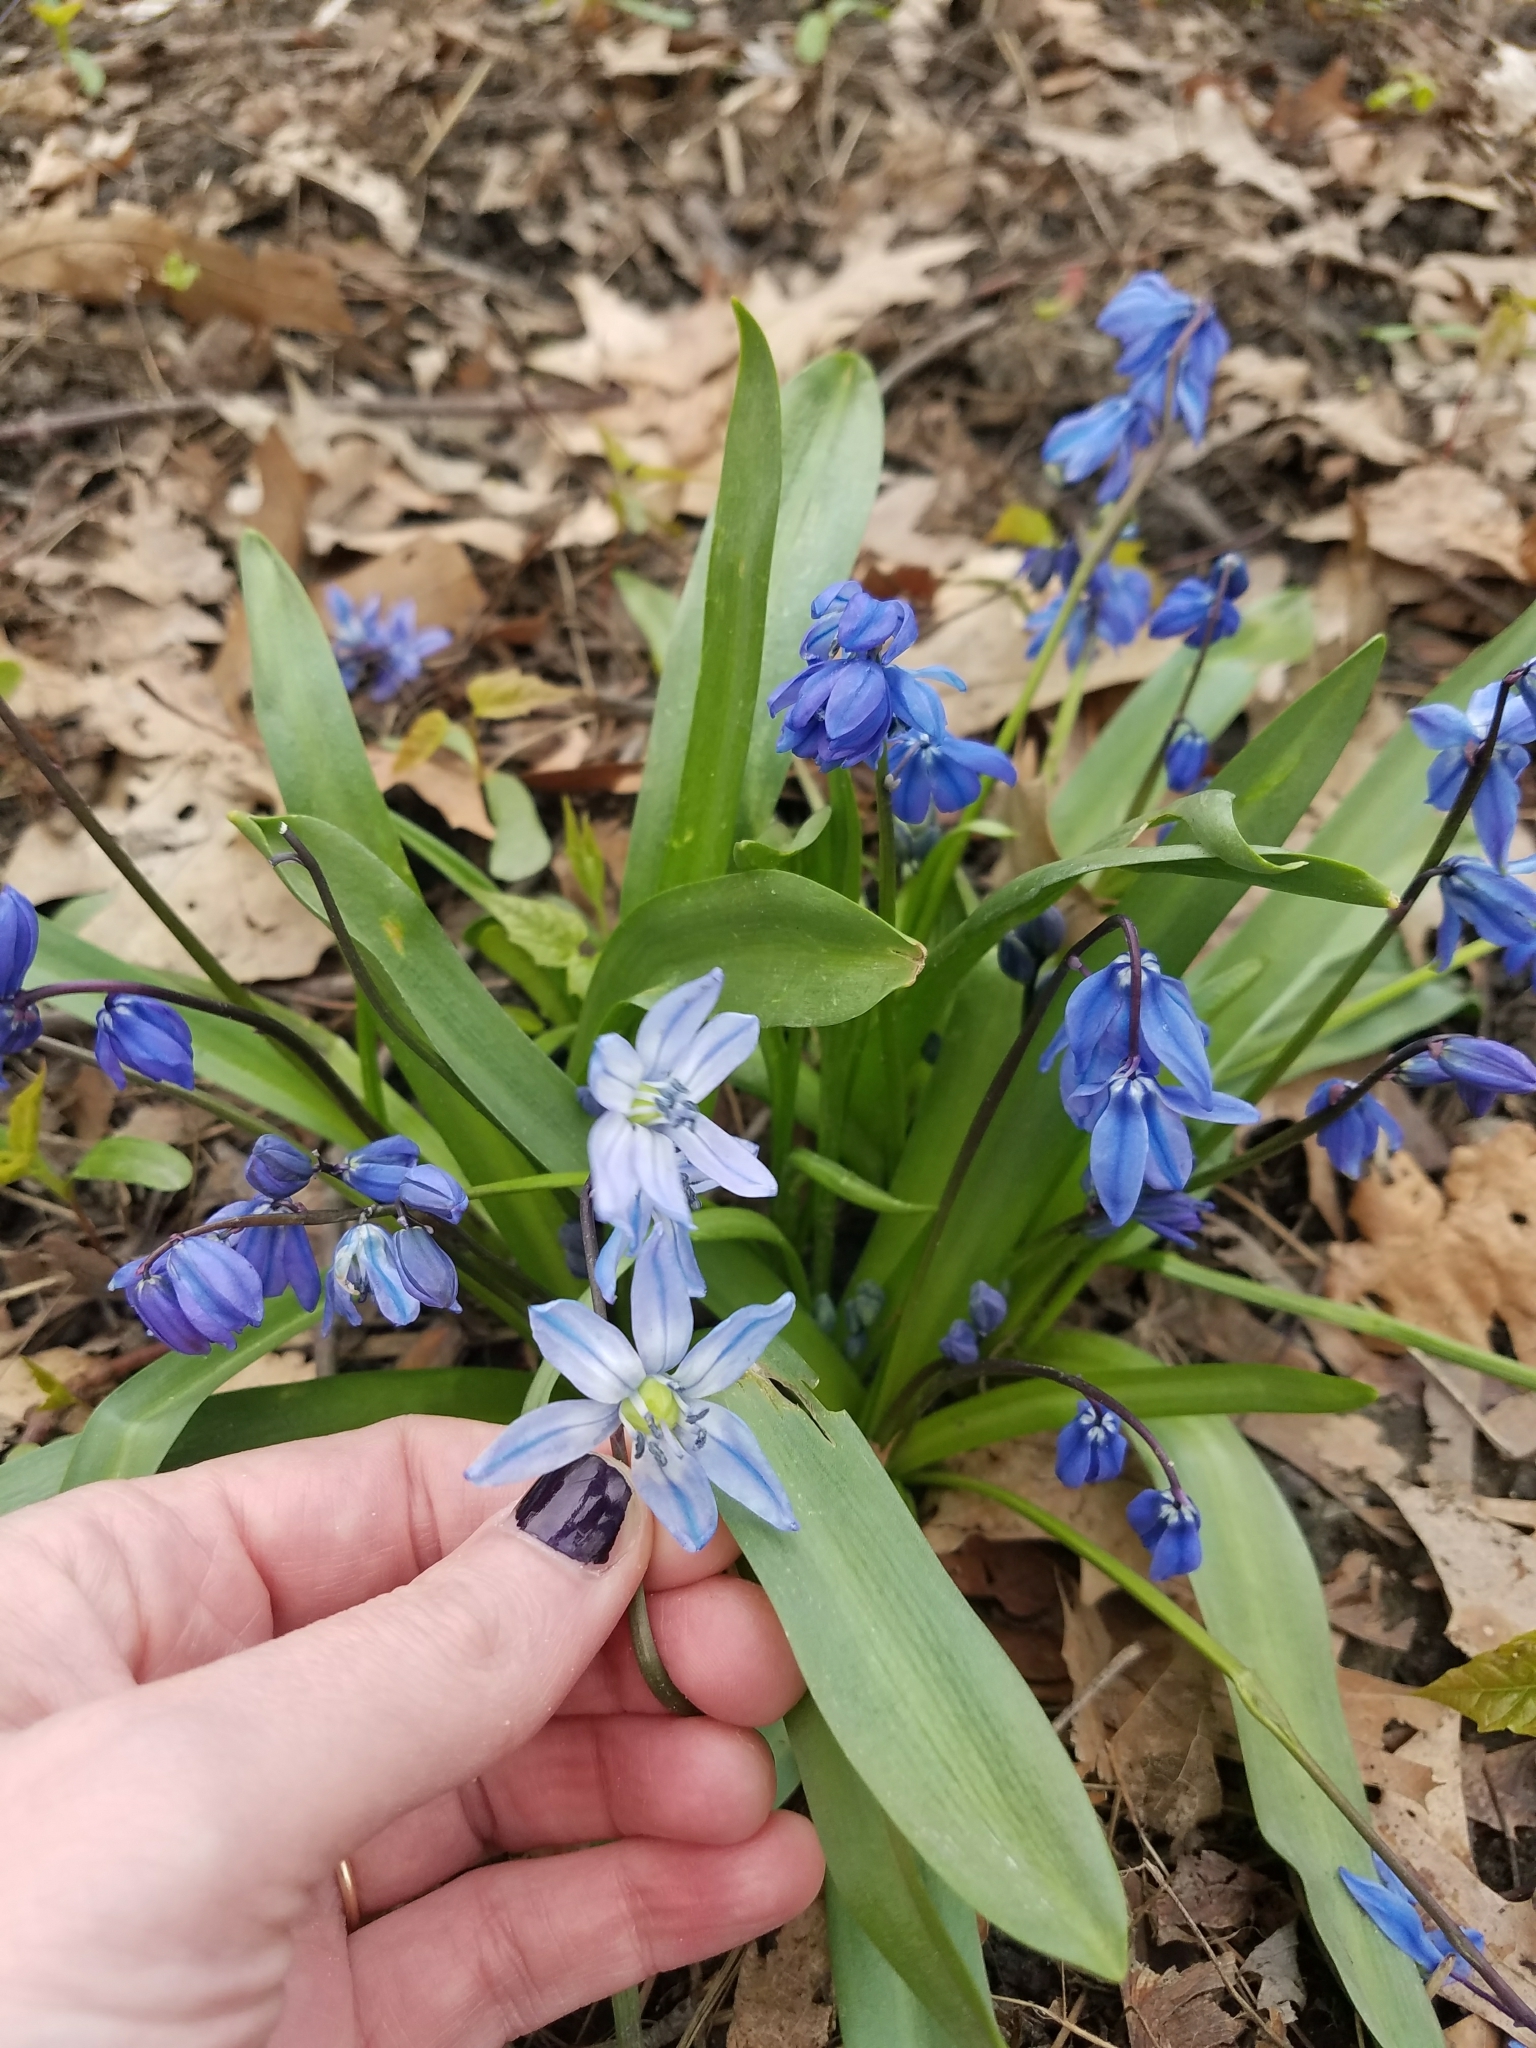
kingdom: Plantae
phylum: Tracheophyta
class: Liliopsida
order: Asparagales
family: Asparagaceae
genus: Scilla
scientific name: Scilla siberica
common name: Siberian squill
